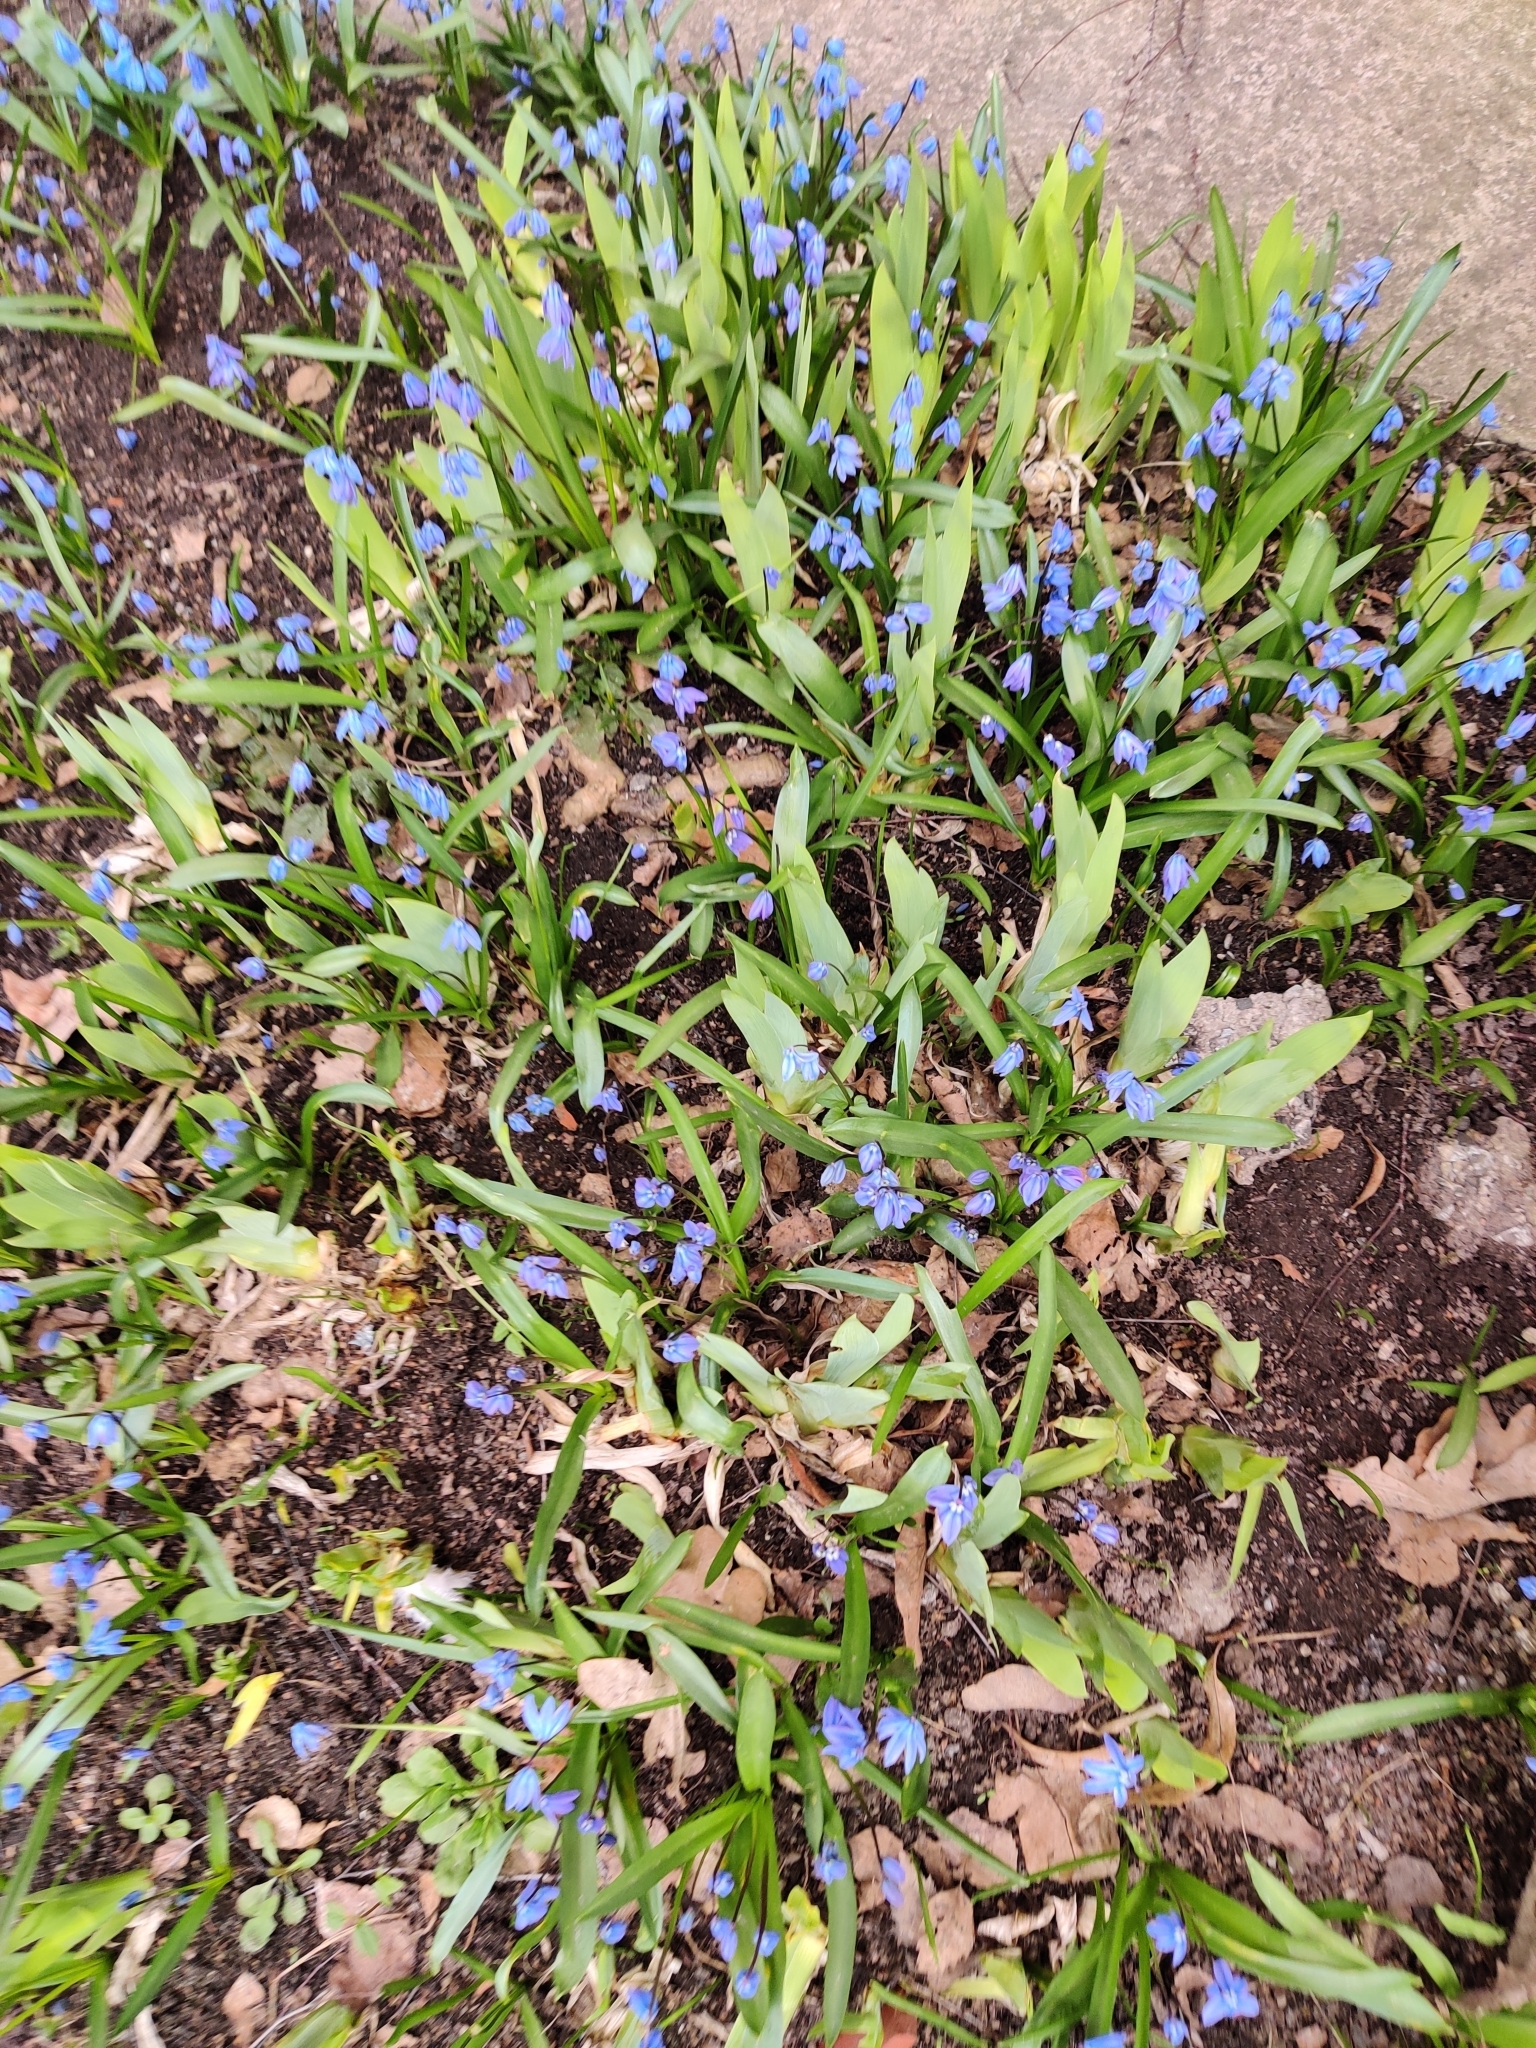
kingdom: Plantae
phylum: Tracheophyta
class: Liliopsida
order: Asparagales
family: Asparagaceae
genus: Scilla
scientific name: Scilla siberica
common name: Siberian squill
